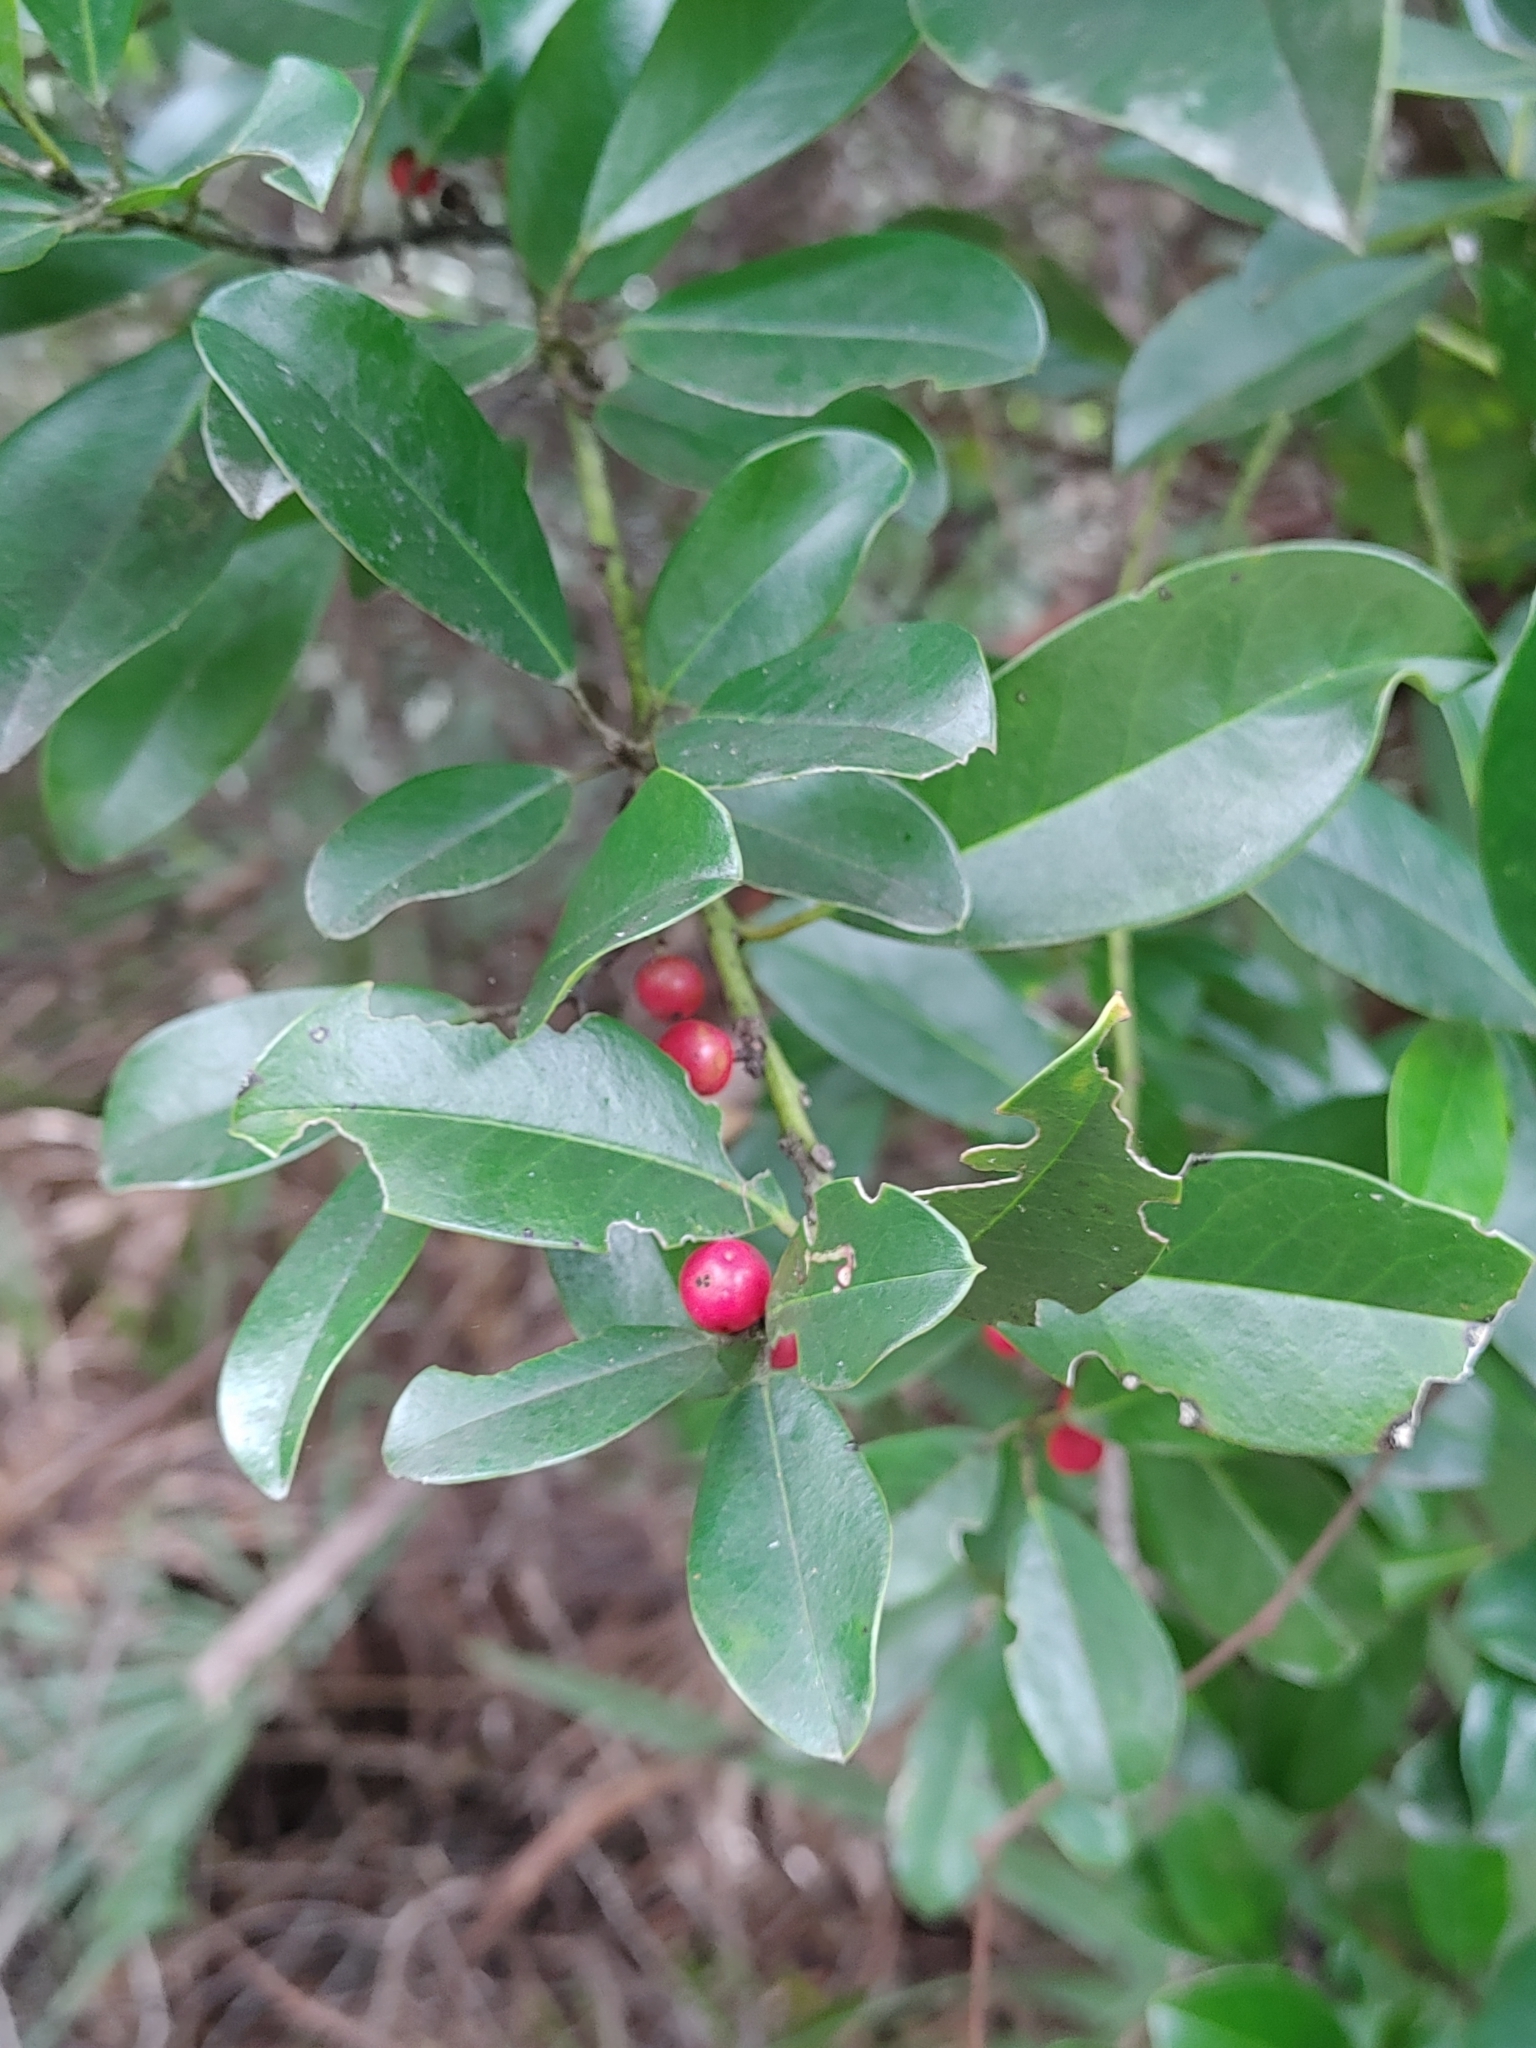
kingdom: Plantae
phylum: Tracheophyta
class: Magnoliopsida
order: Aquifoliales
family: Aquifoliaceae
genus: Ilex
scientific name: Ilex cassine
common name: Dahoon
